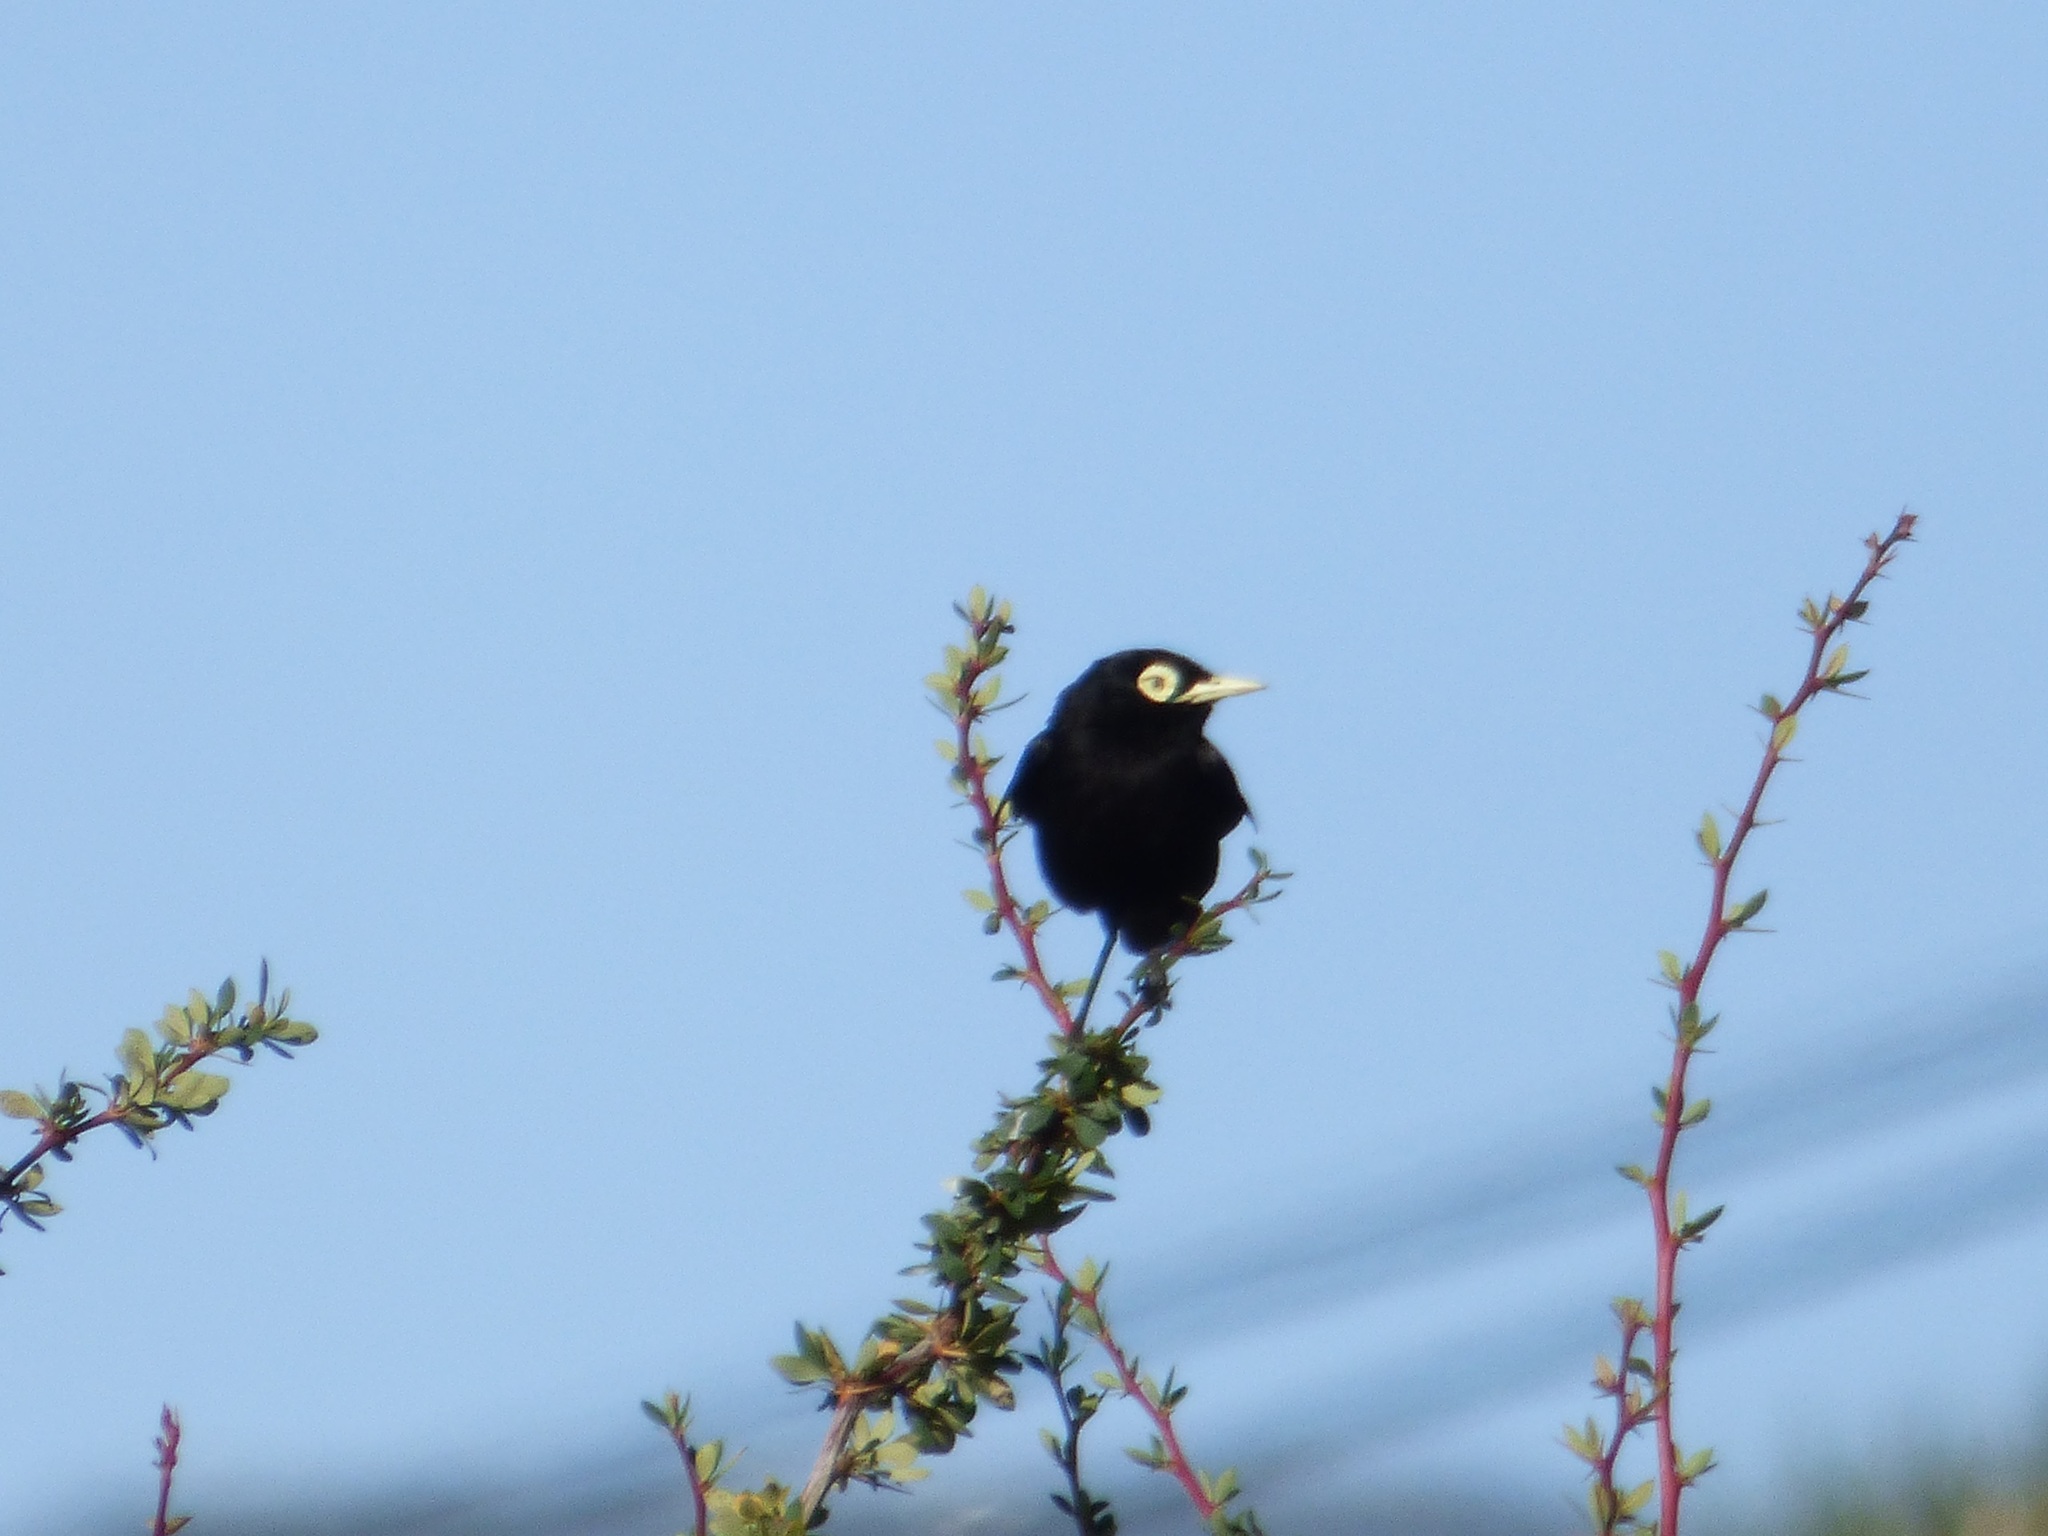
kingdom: Animalia
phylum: Chordata
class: Aves
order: Passeriformes
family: Tyrannidae
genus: Hymenops
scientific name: Hymenops perspicillatus
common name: Spectacled tyrant
